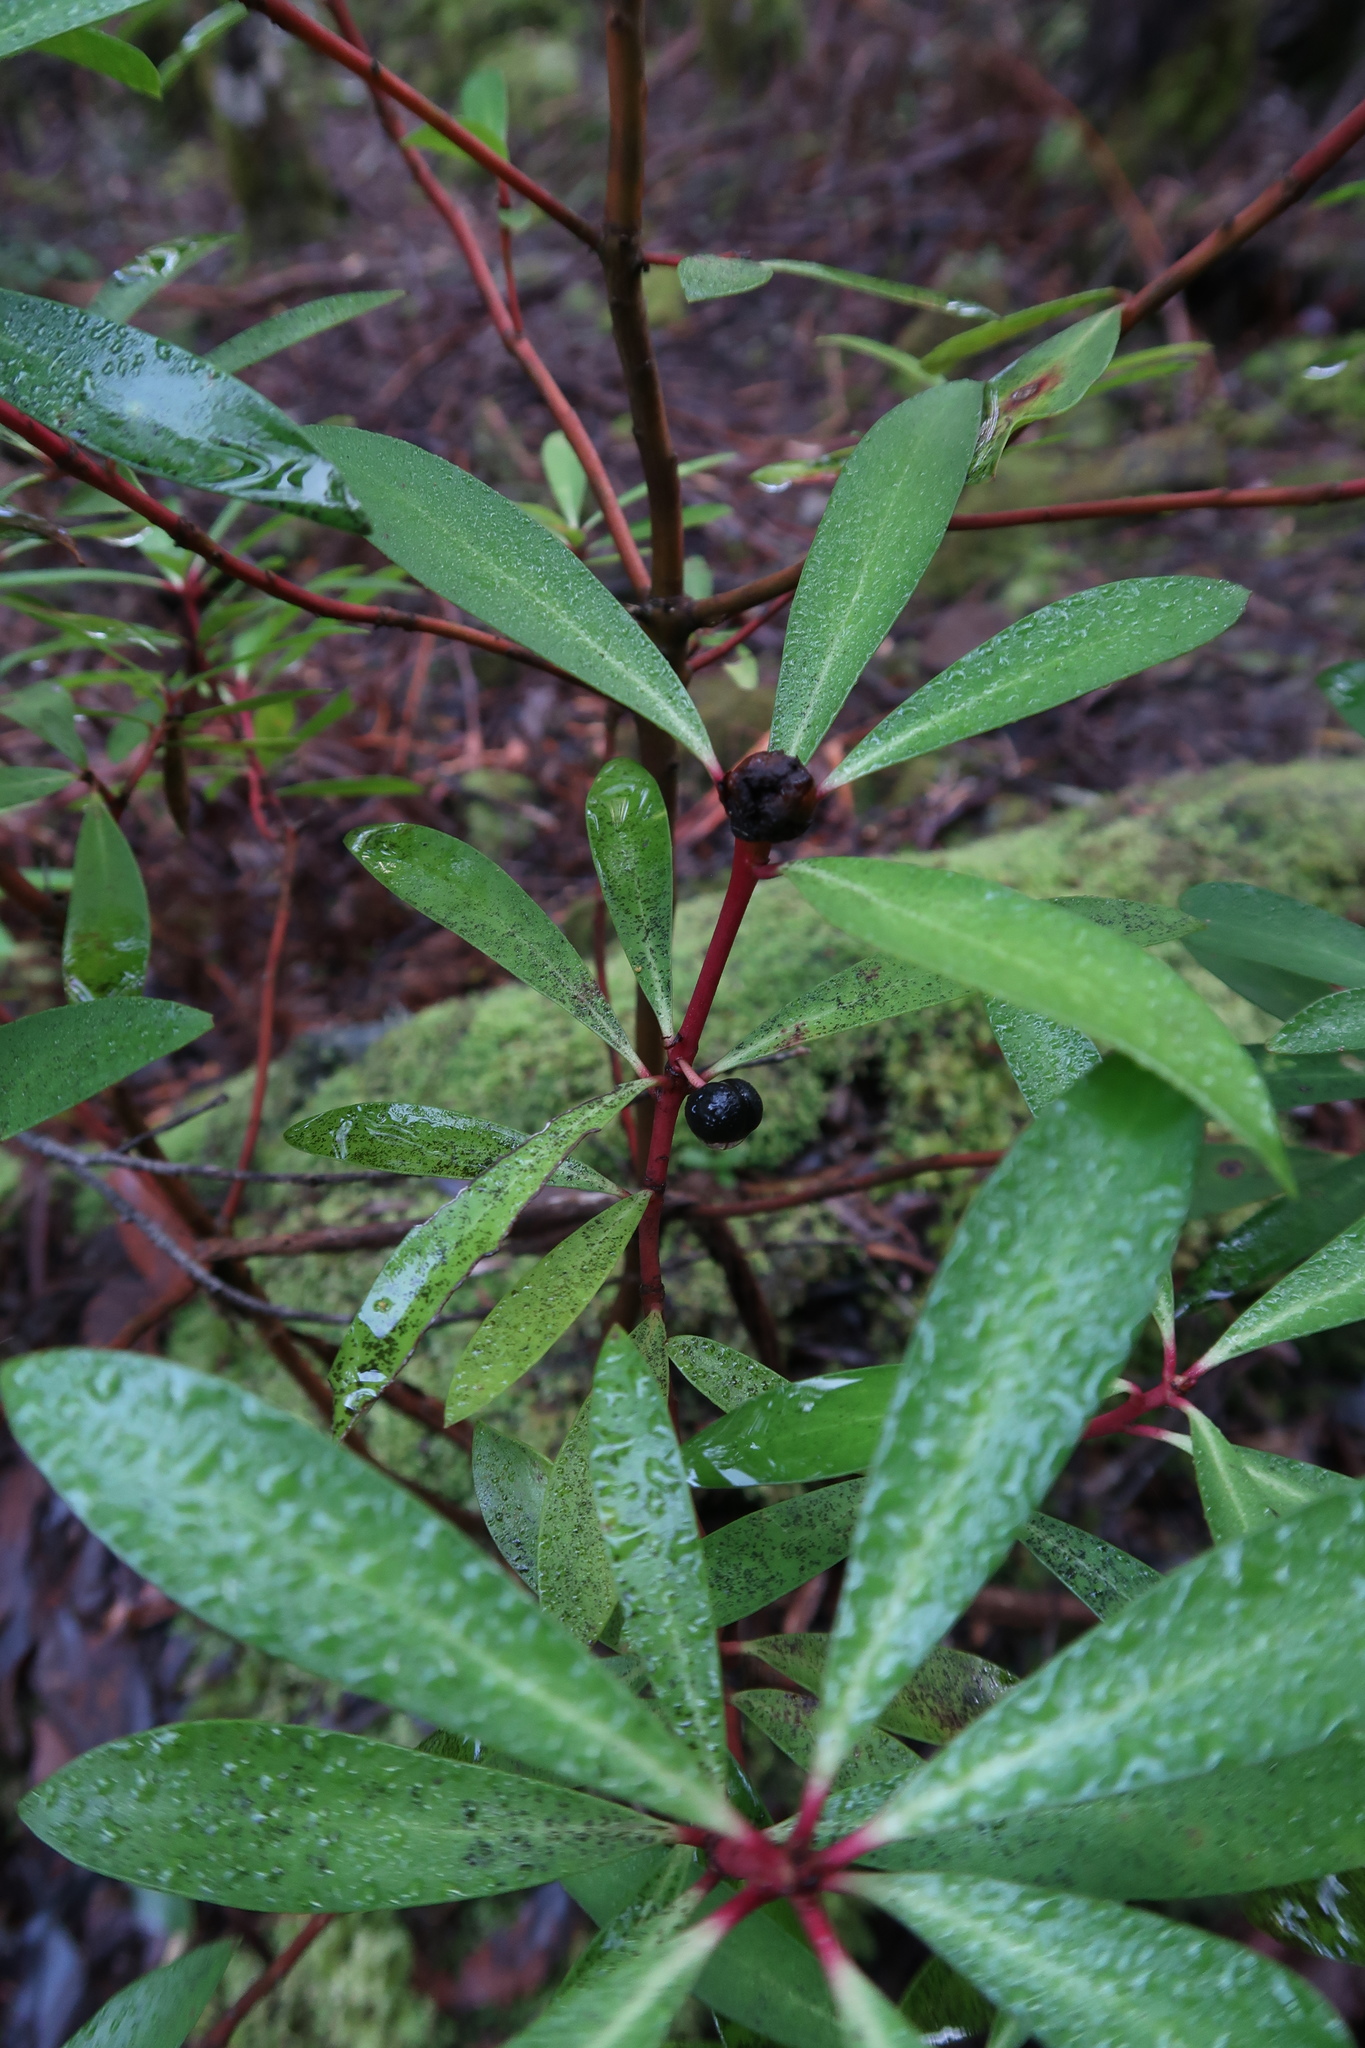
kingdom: Plantae
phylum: Tracheophyta
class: Magnoliopsida
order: Canellales
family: Winteraceae
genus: Drimys
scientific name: Drimys aromatica
